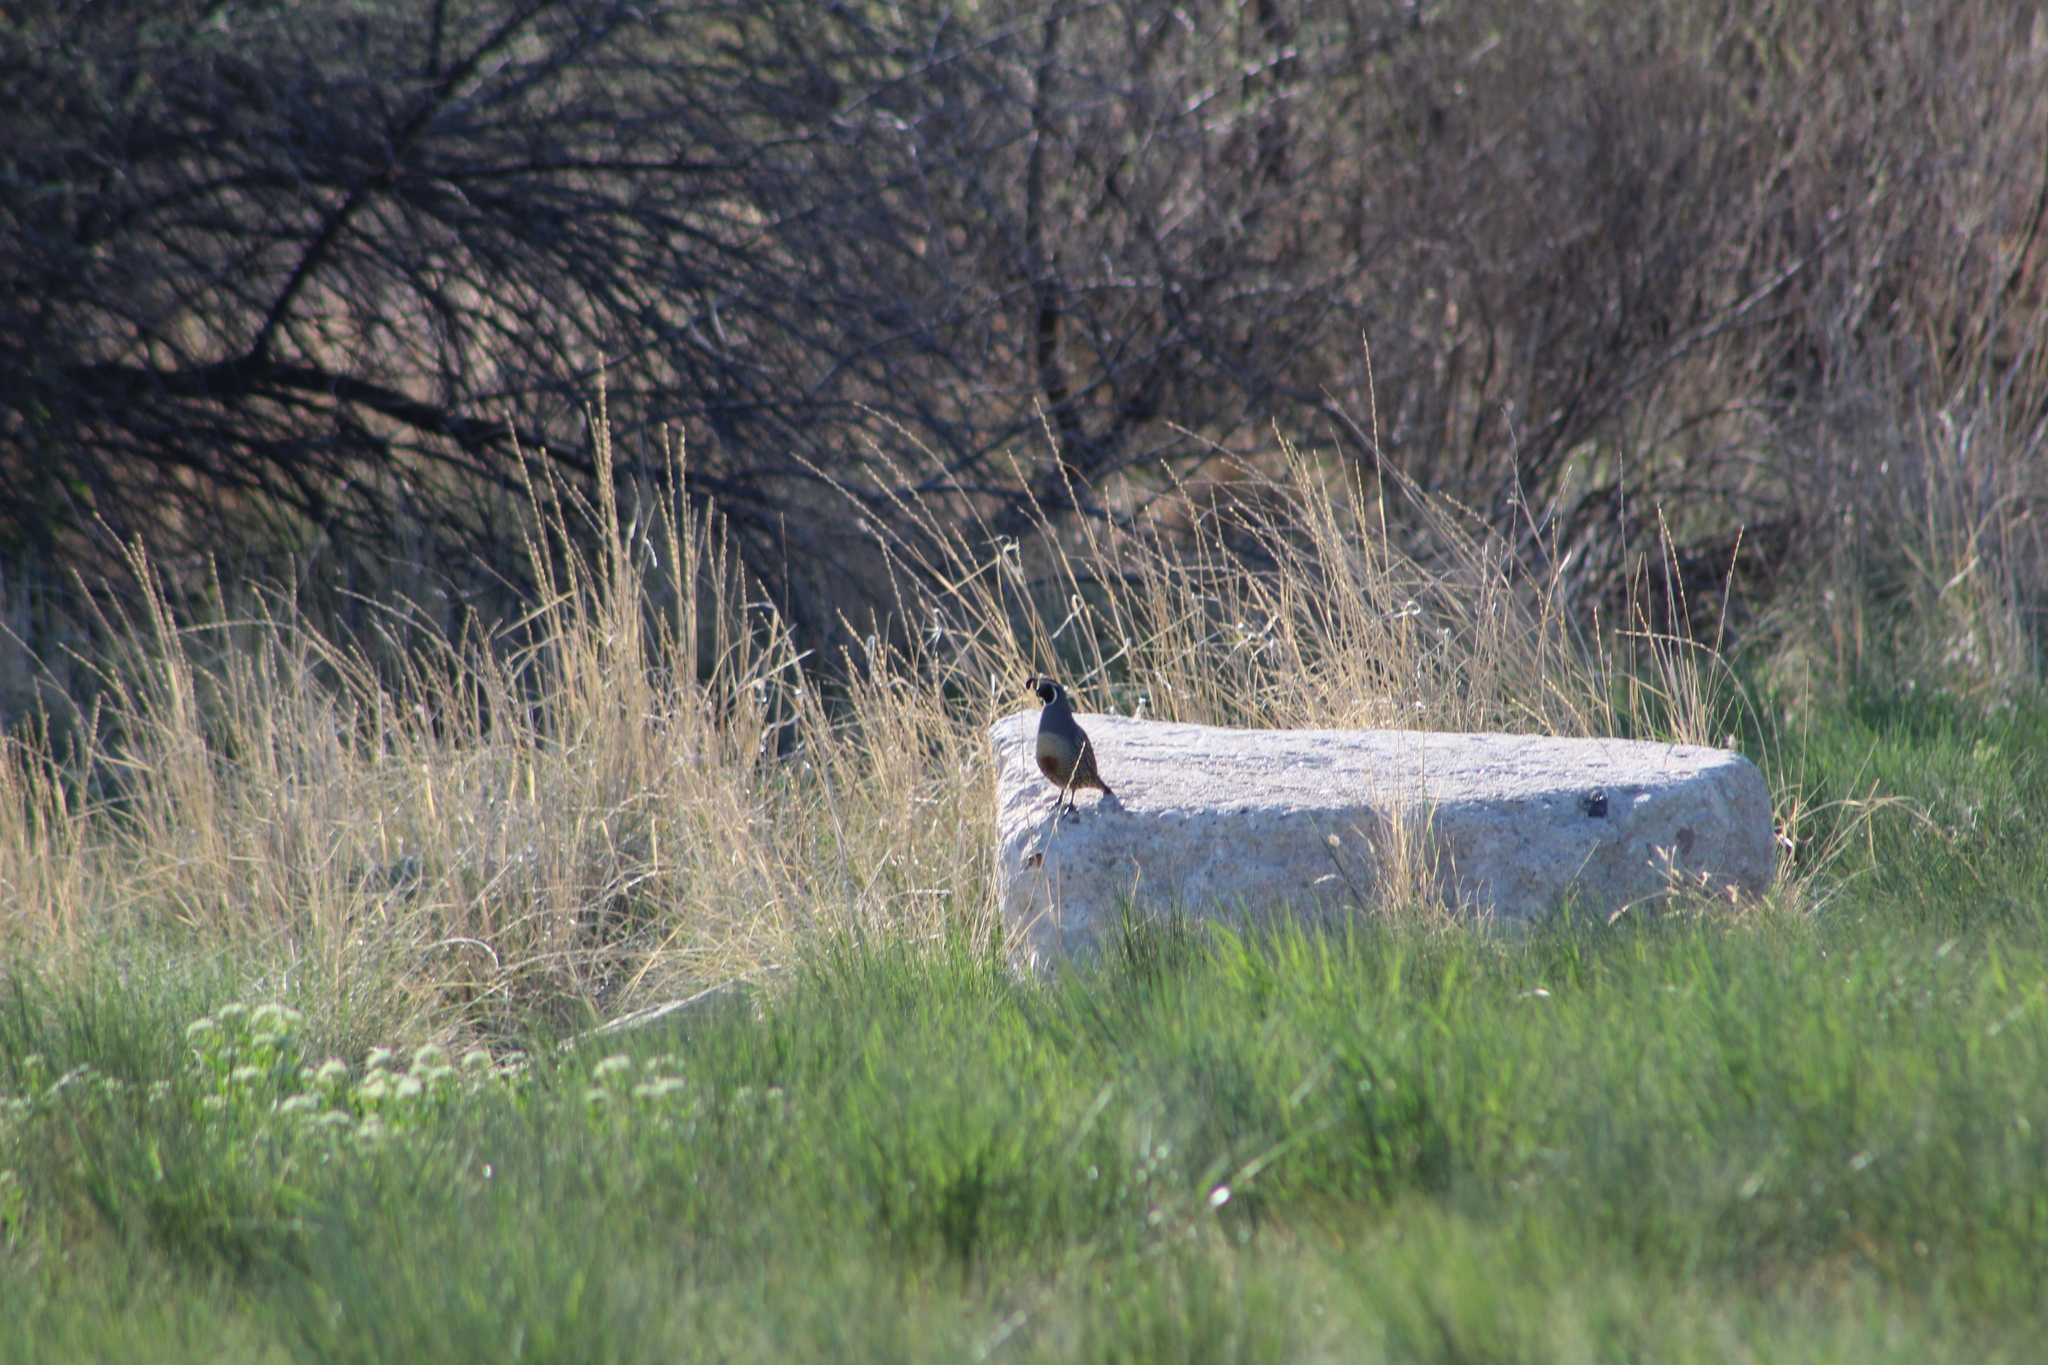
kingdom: Animalia
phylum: Chordata
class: Aves
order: Galliformes
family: Odontophoridae
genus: Callipepla
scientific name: Callipepla californica
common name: California quail
